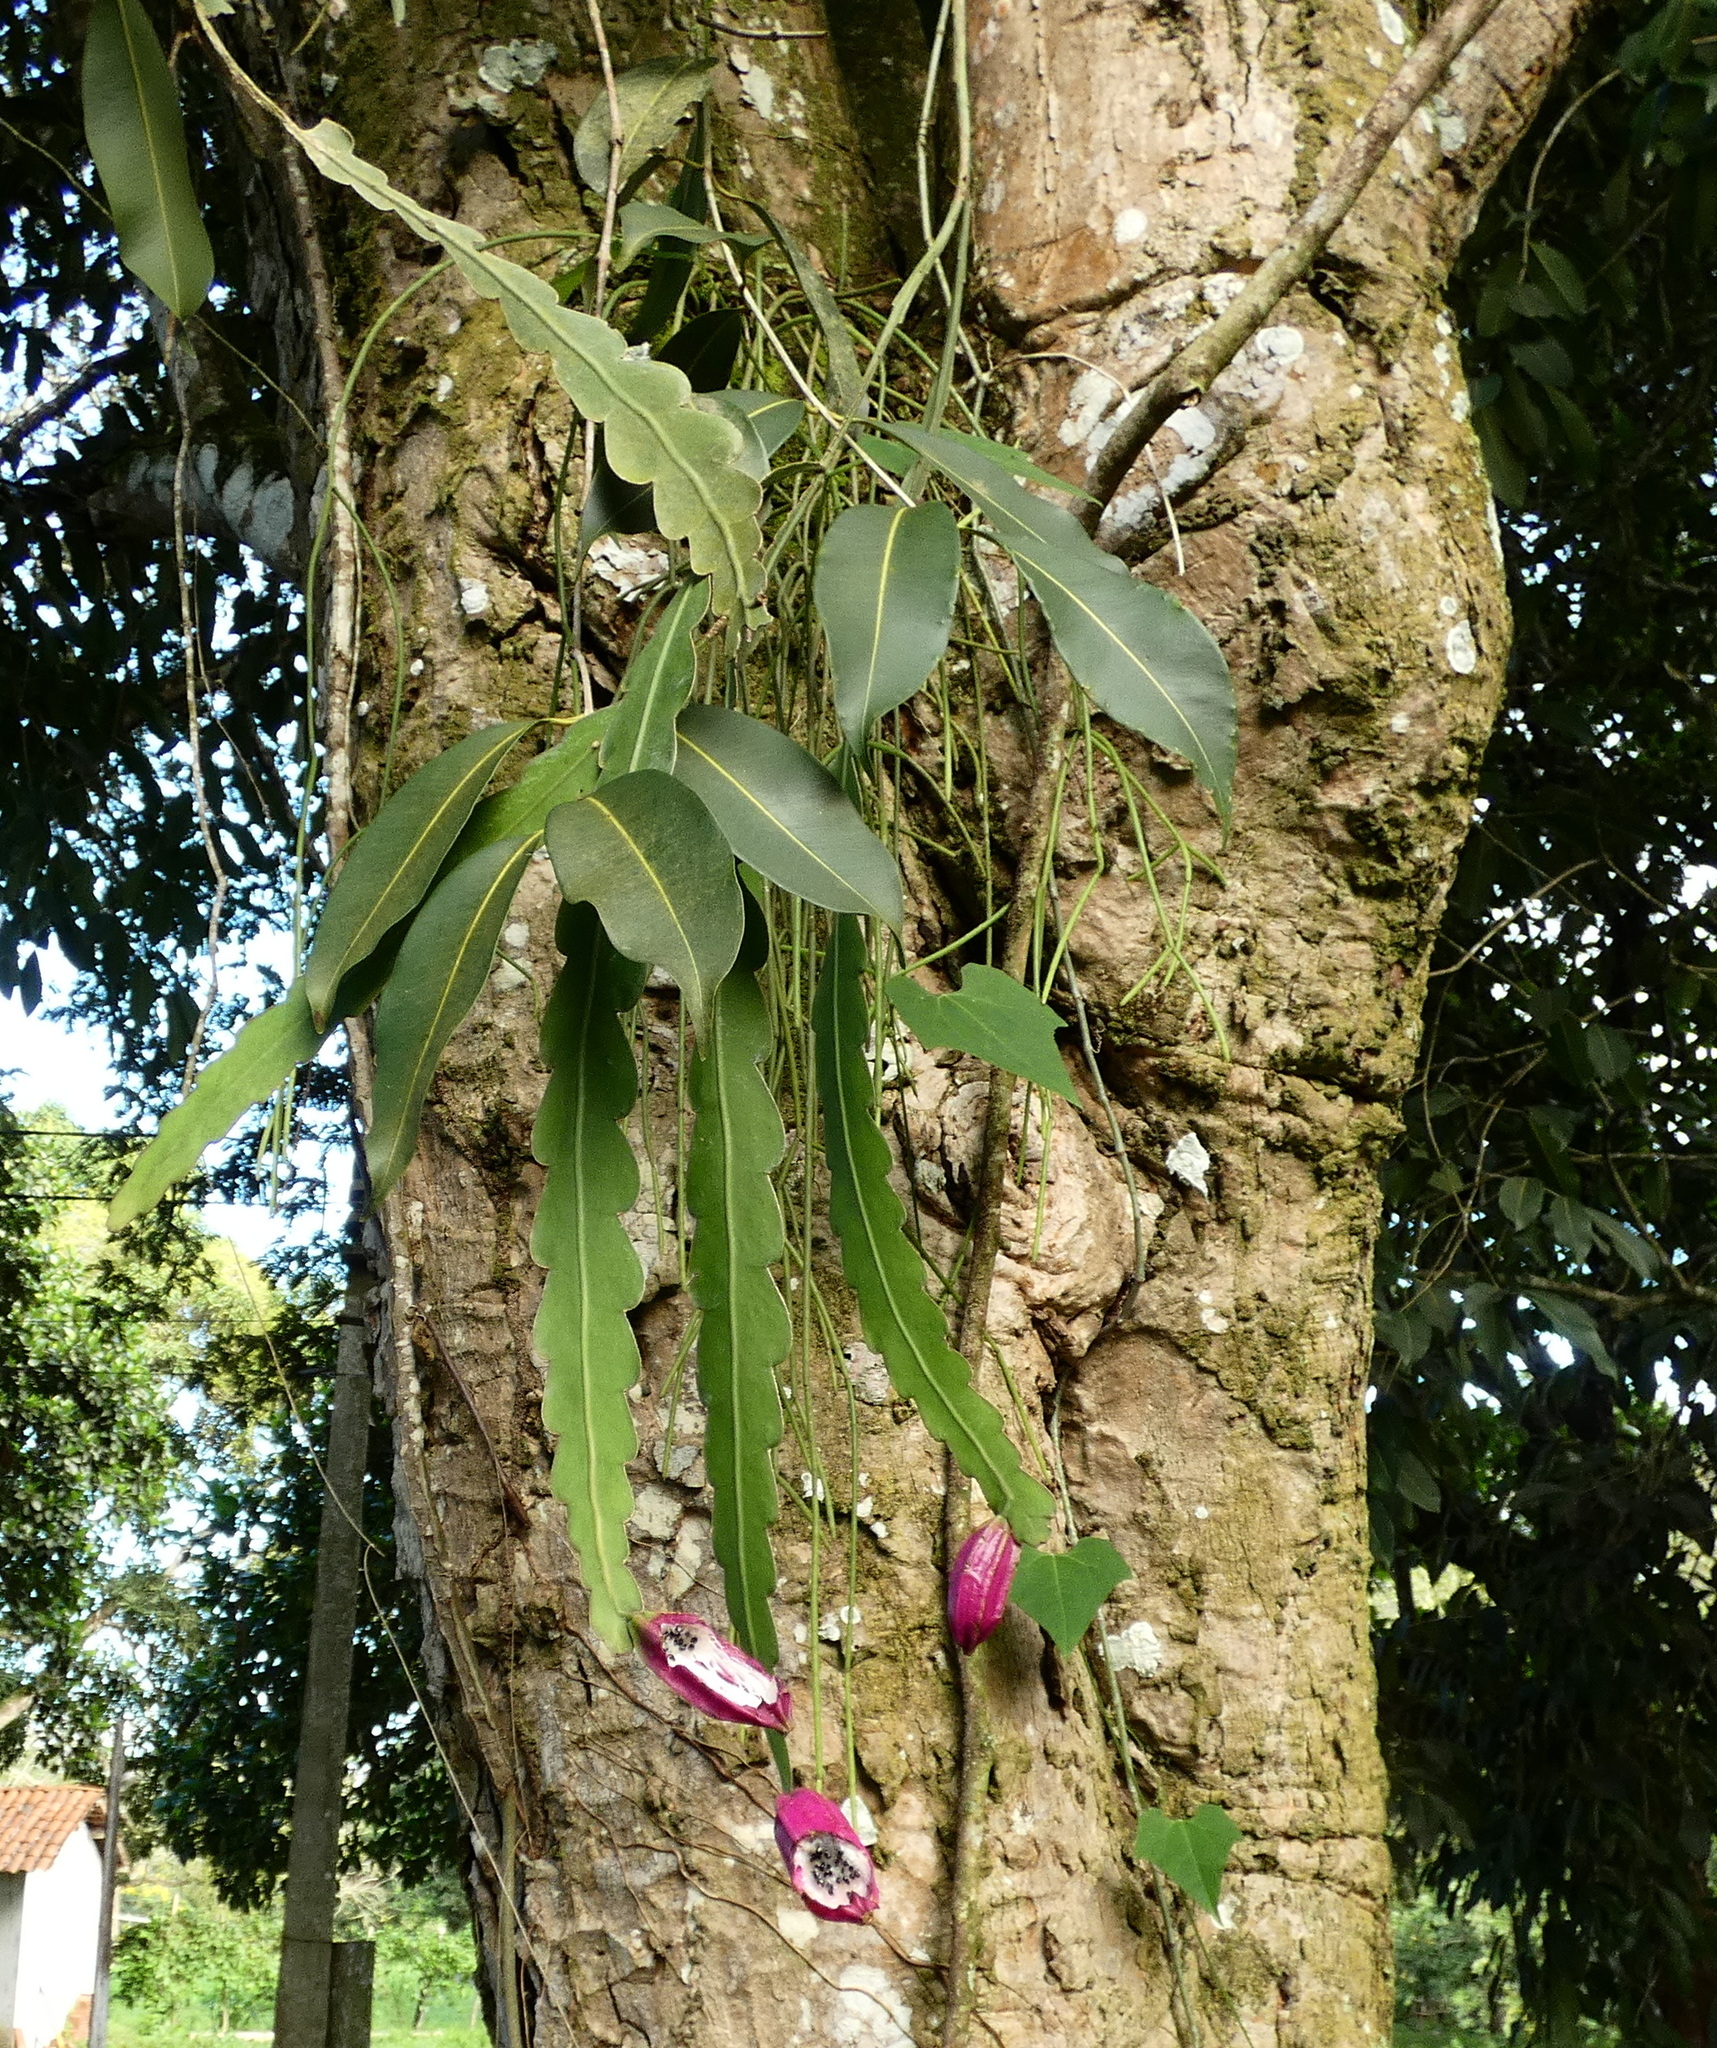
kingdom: Plantae
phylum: Tracheophyta
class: Magnoliopsida
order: Caryophyllales
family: Cactaceae
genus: Epiphyllum
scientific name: Epiphyllum phyllanthus
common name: Climbing cactus
